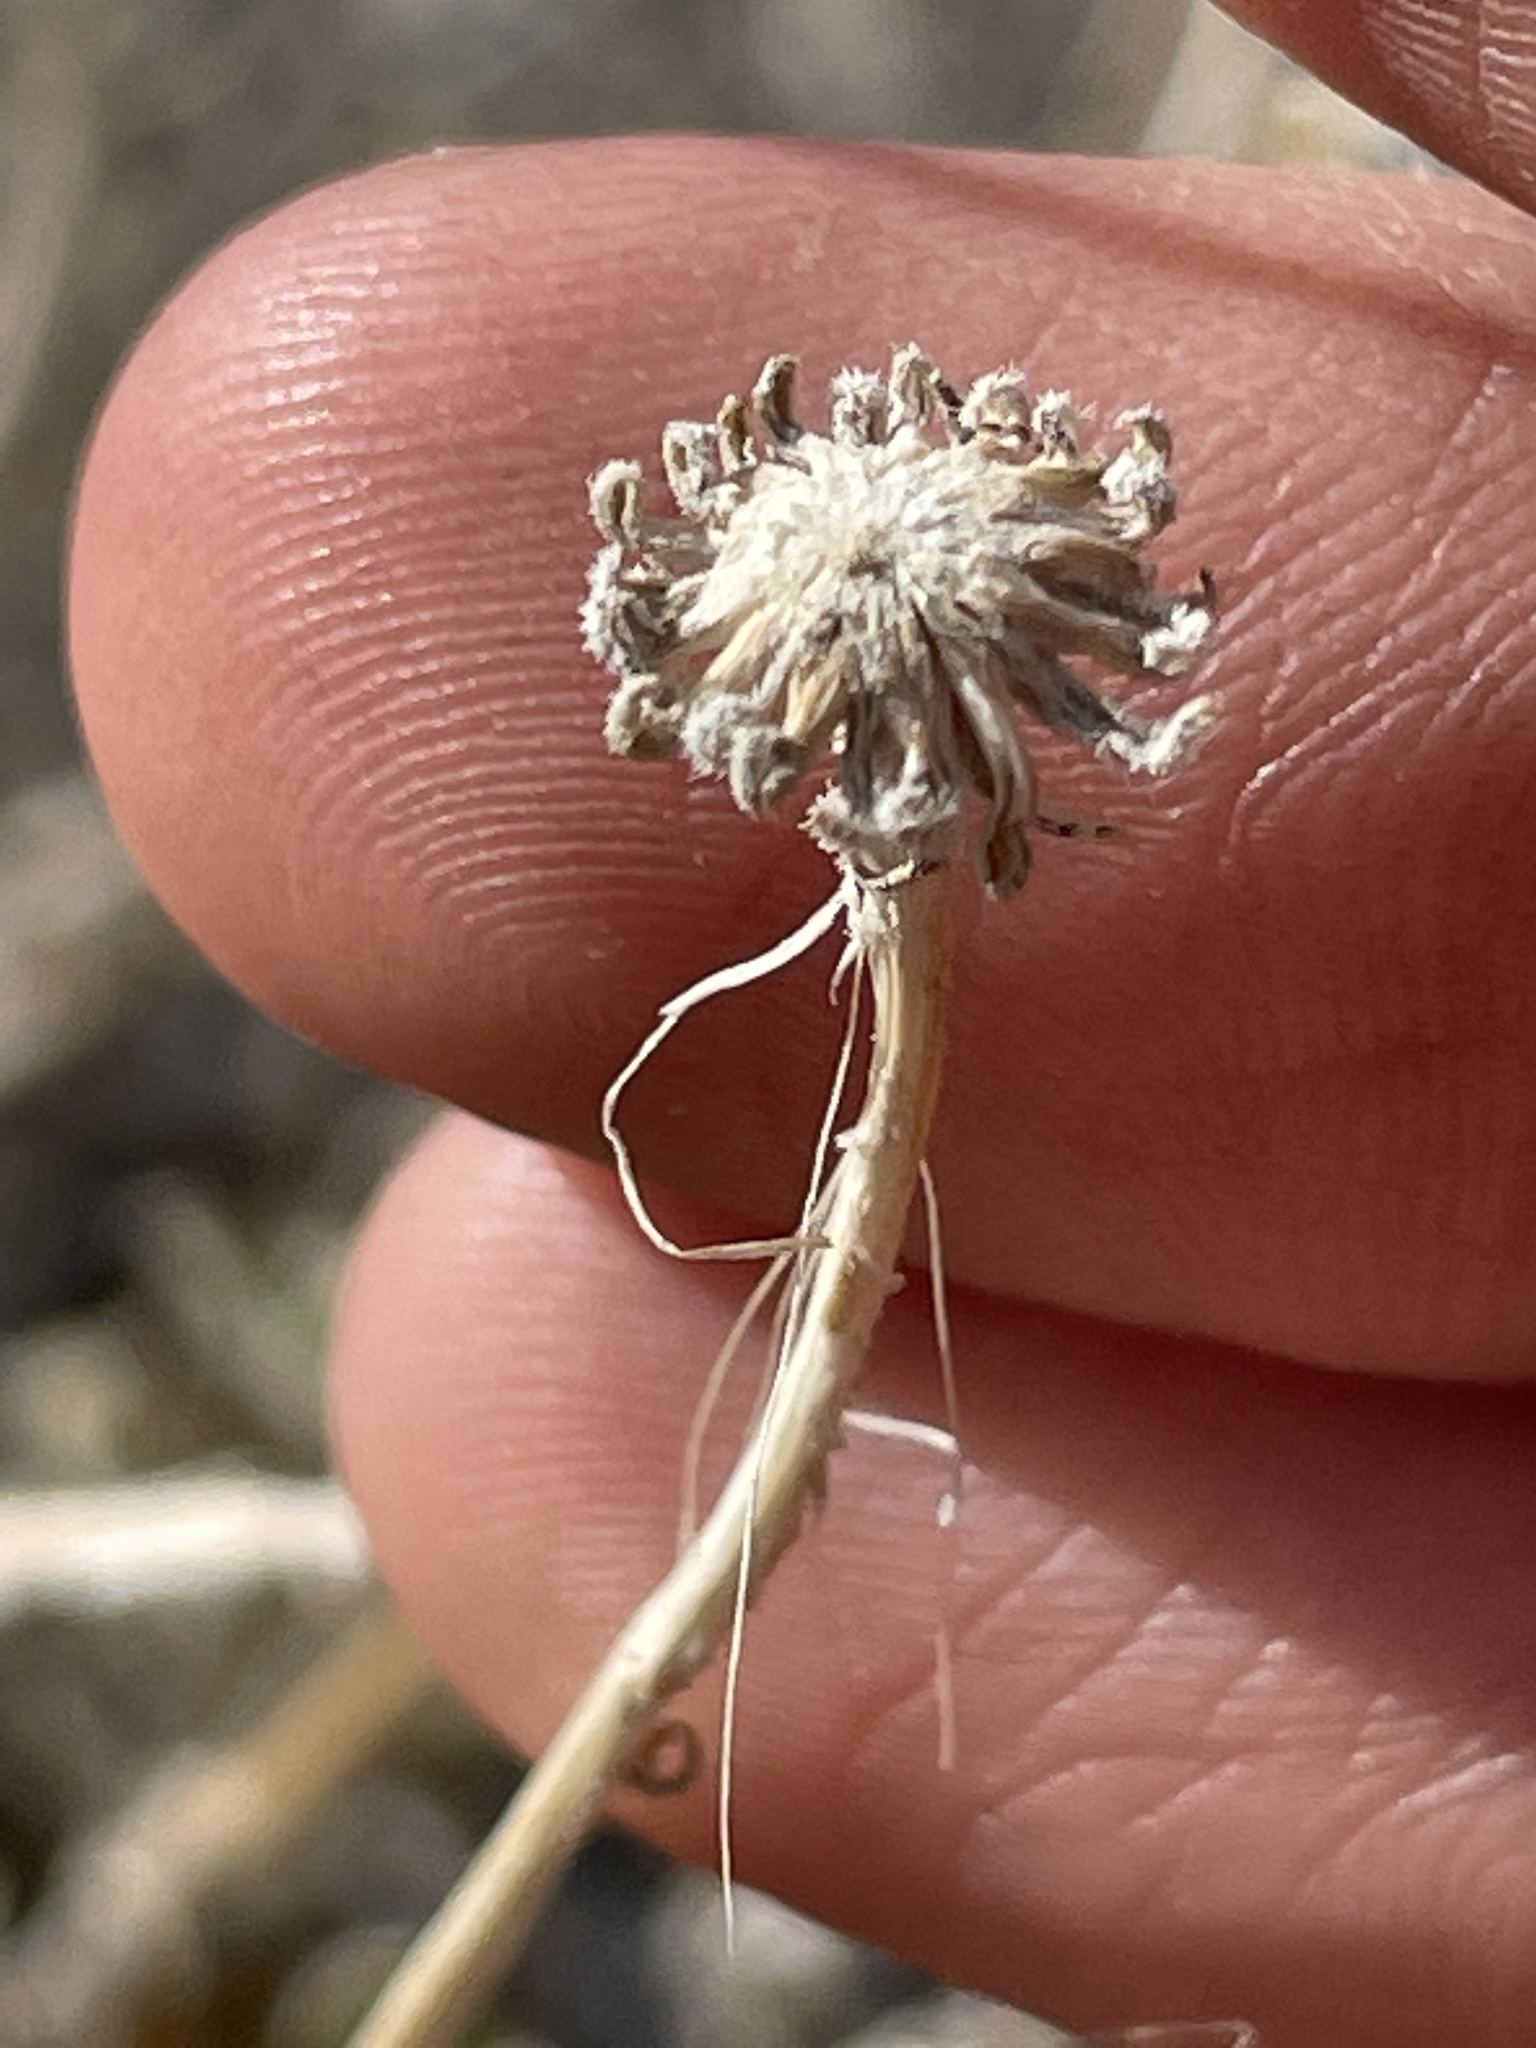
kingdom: Plantae
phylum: Tracheophyta
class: Magnoliopsida
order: Asterales
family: Asteraceae
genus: Encelia
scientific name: Encelia virginensis
